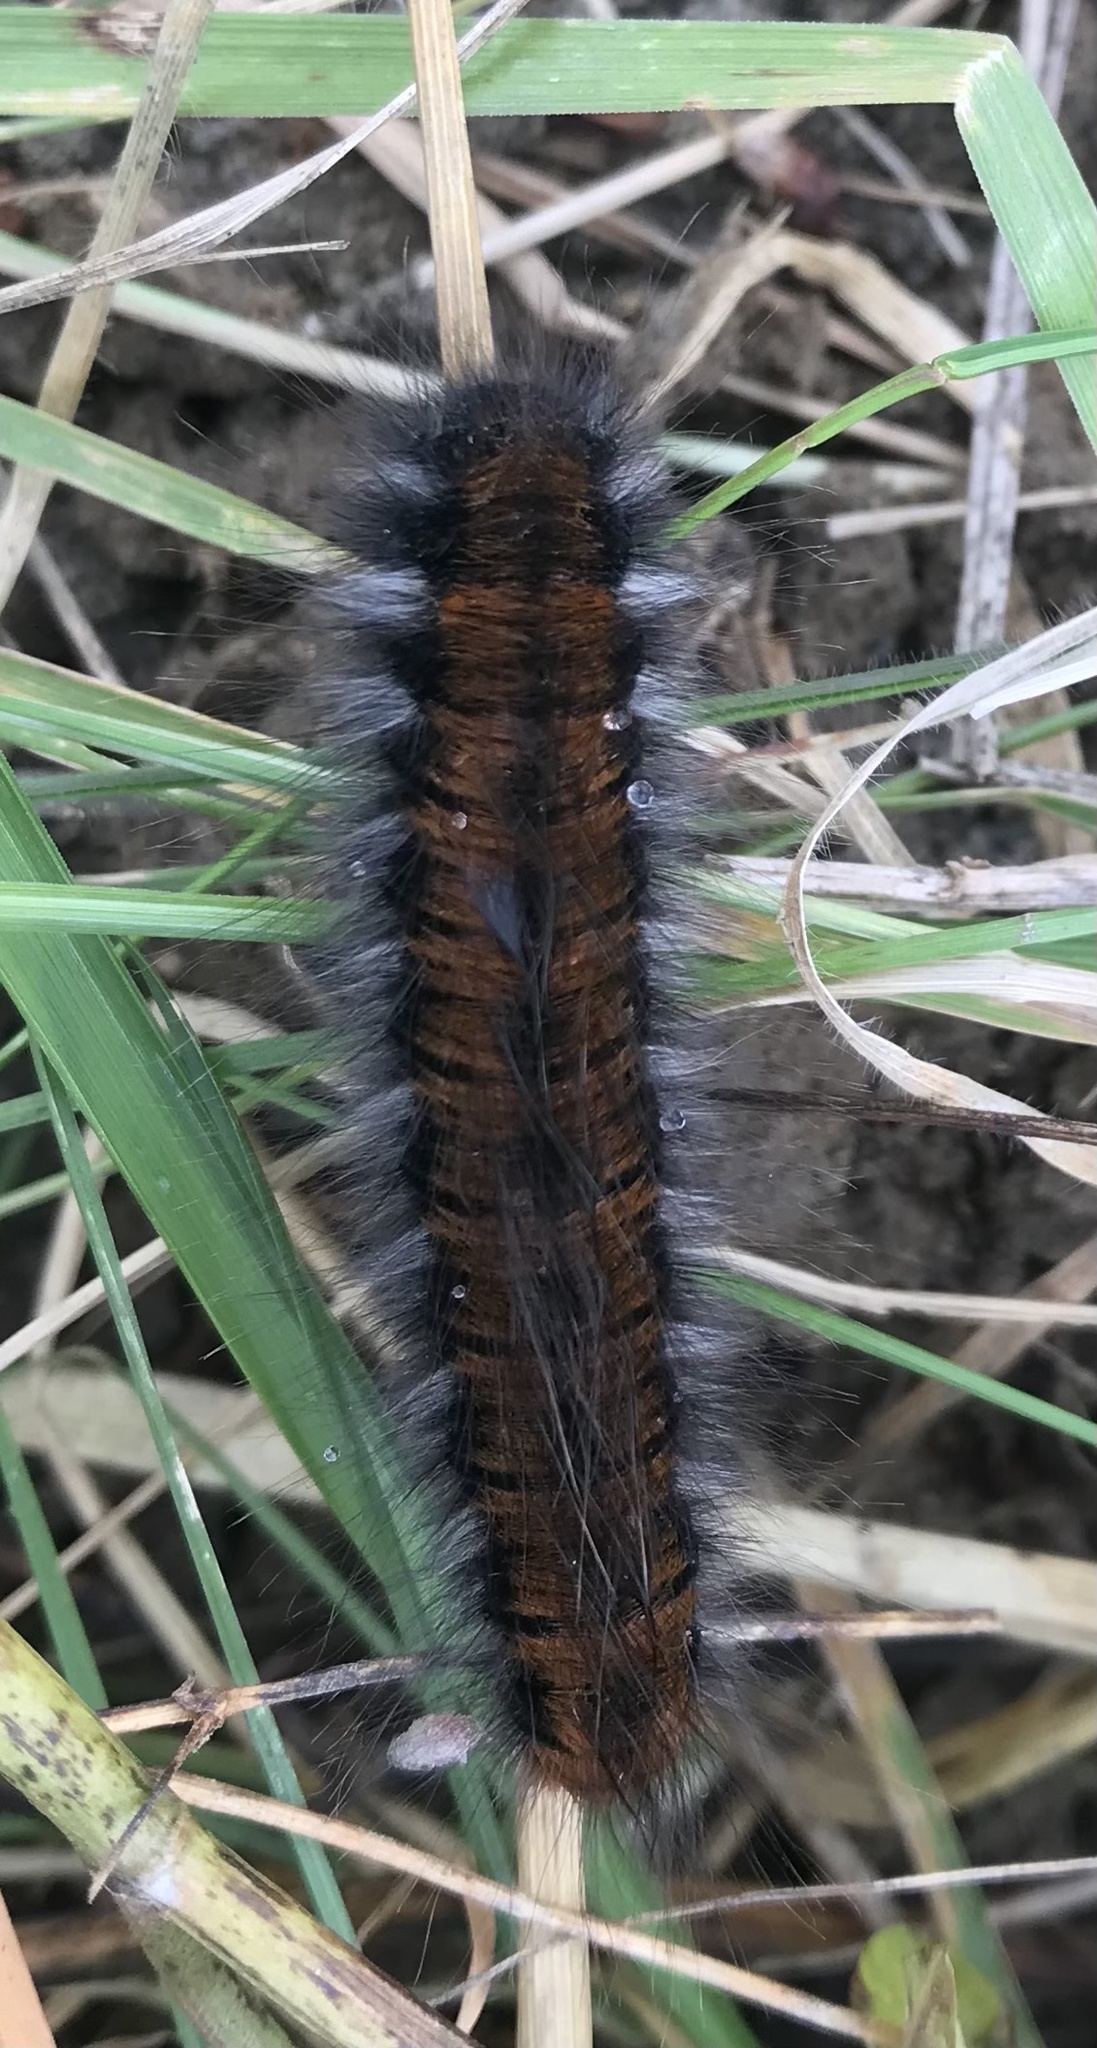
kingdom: Animalia
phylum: Arthropoda
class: Insecta
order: Lepidoptera
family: Lasiocampidae
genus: Macrothylacia
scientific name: Macrothylacia rubi
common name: Fox moth
